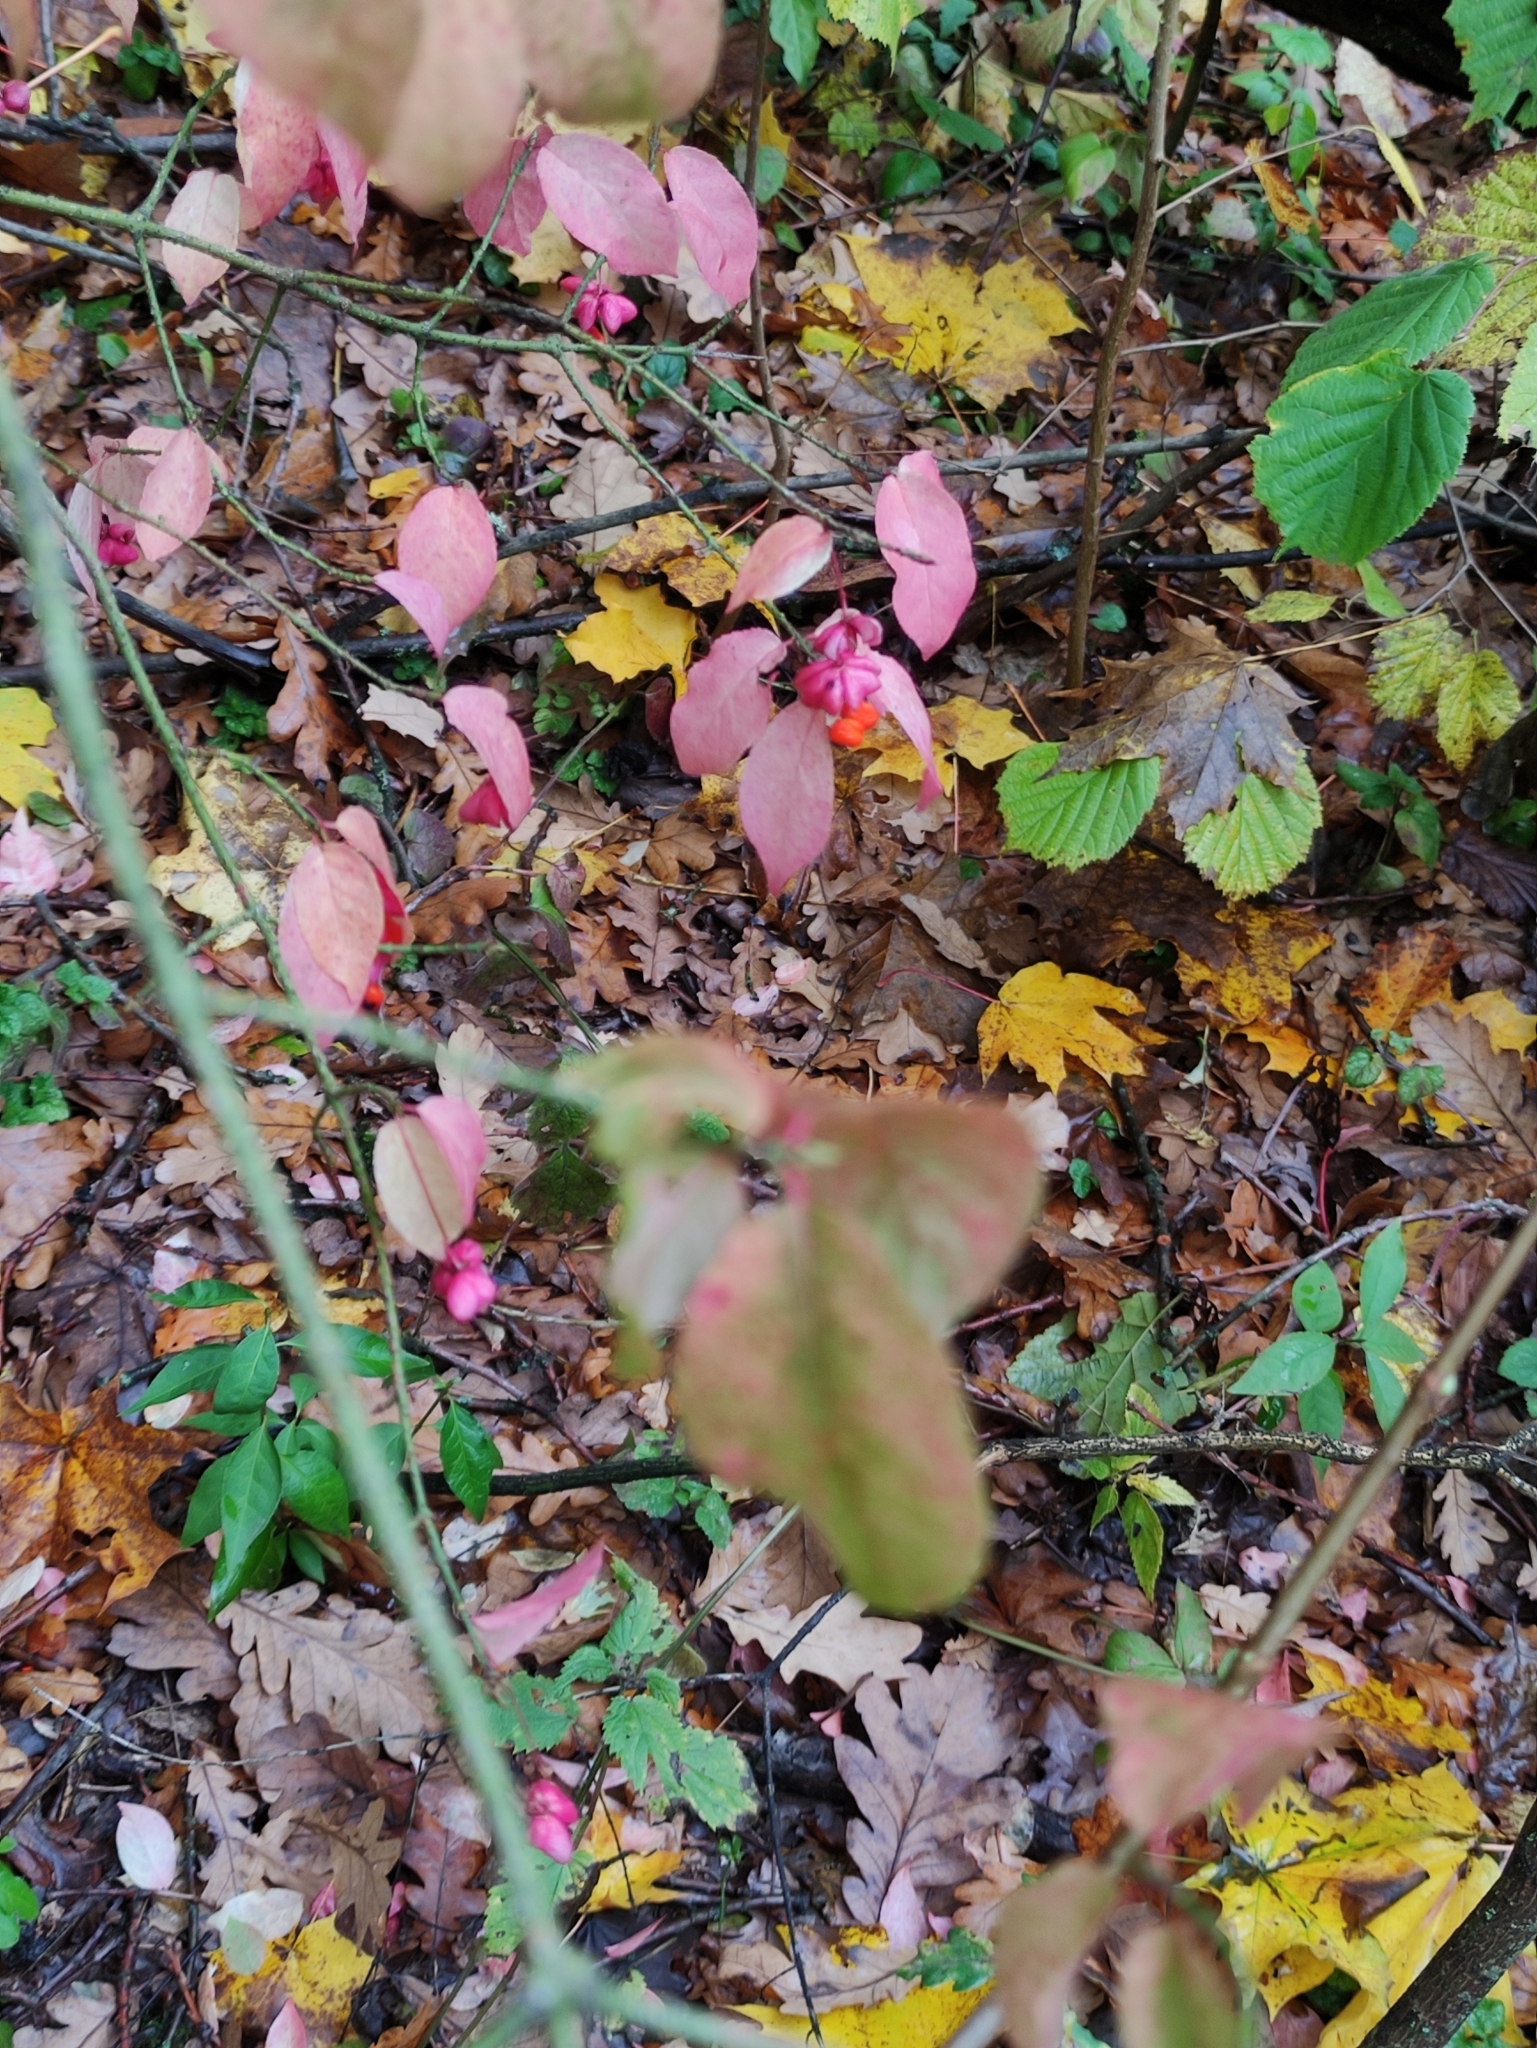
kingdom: Plantae
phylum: Tracheophyta
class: Magnoliopsida
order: Celastrales
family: Celastraceae
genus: Euonymus
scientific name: Euonymus verrucosus
